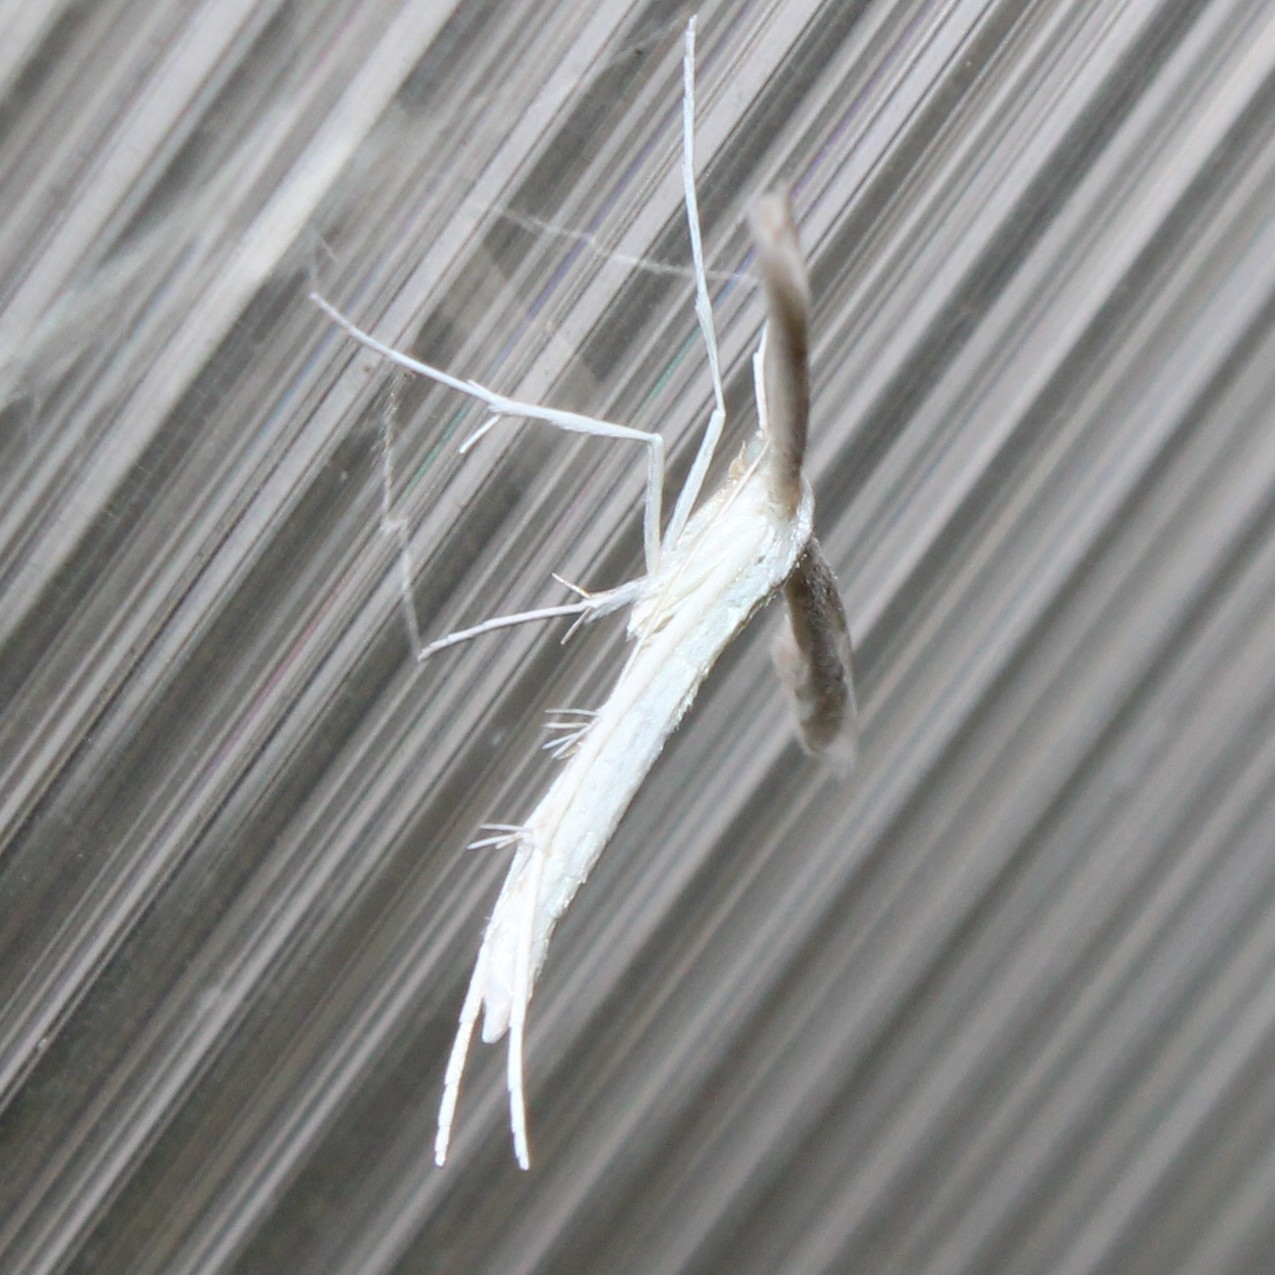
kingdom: Animalia
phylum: Arthropoda
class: Insecta
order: Lepidoptera
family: Pterophoridae
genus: Hellinsia
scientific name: Hellinsia homodactylus
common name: Plain plume moth
